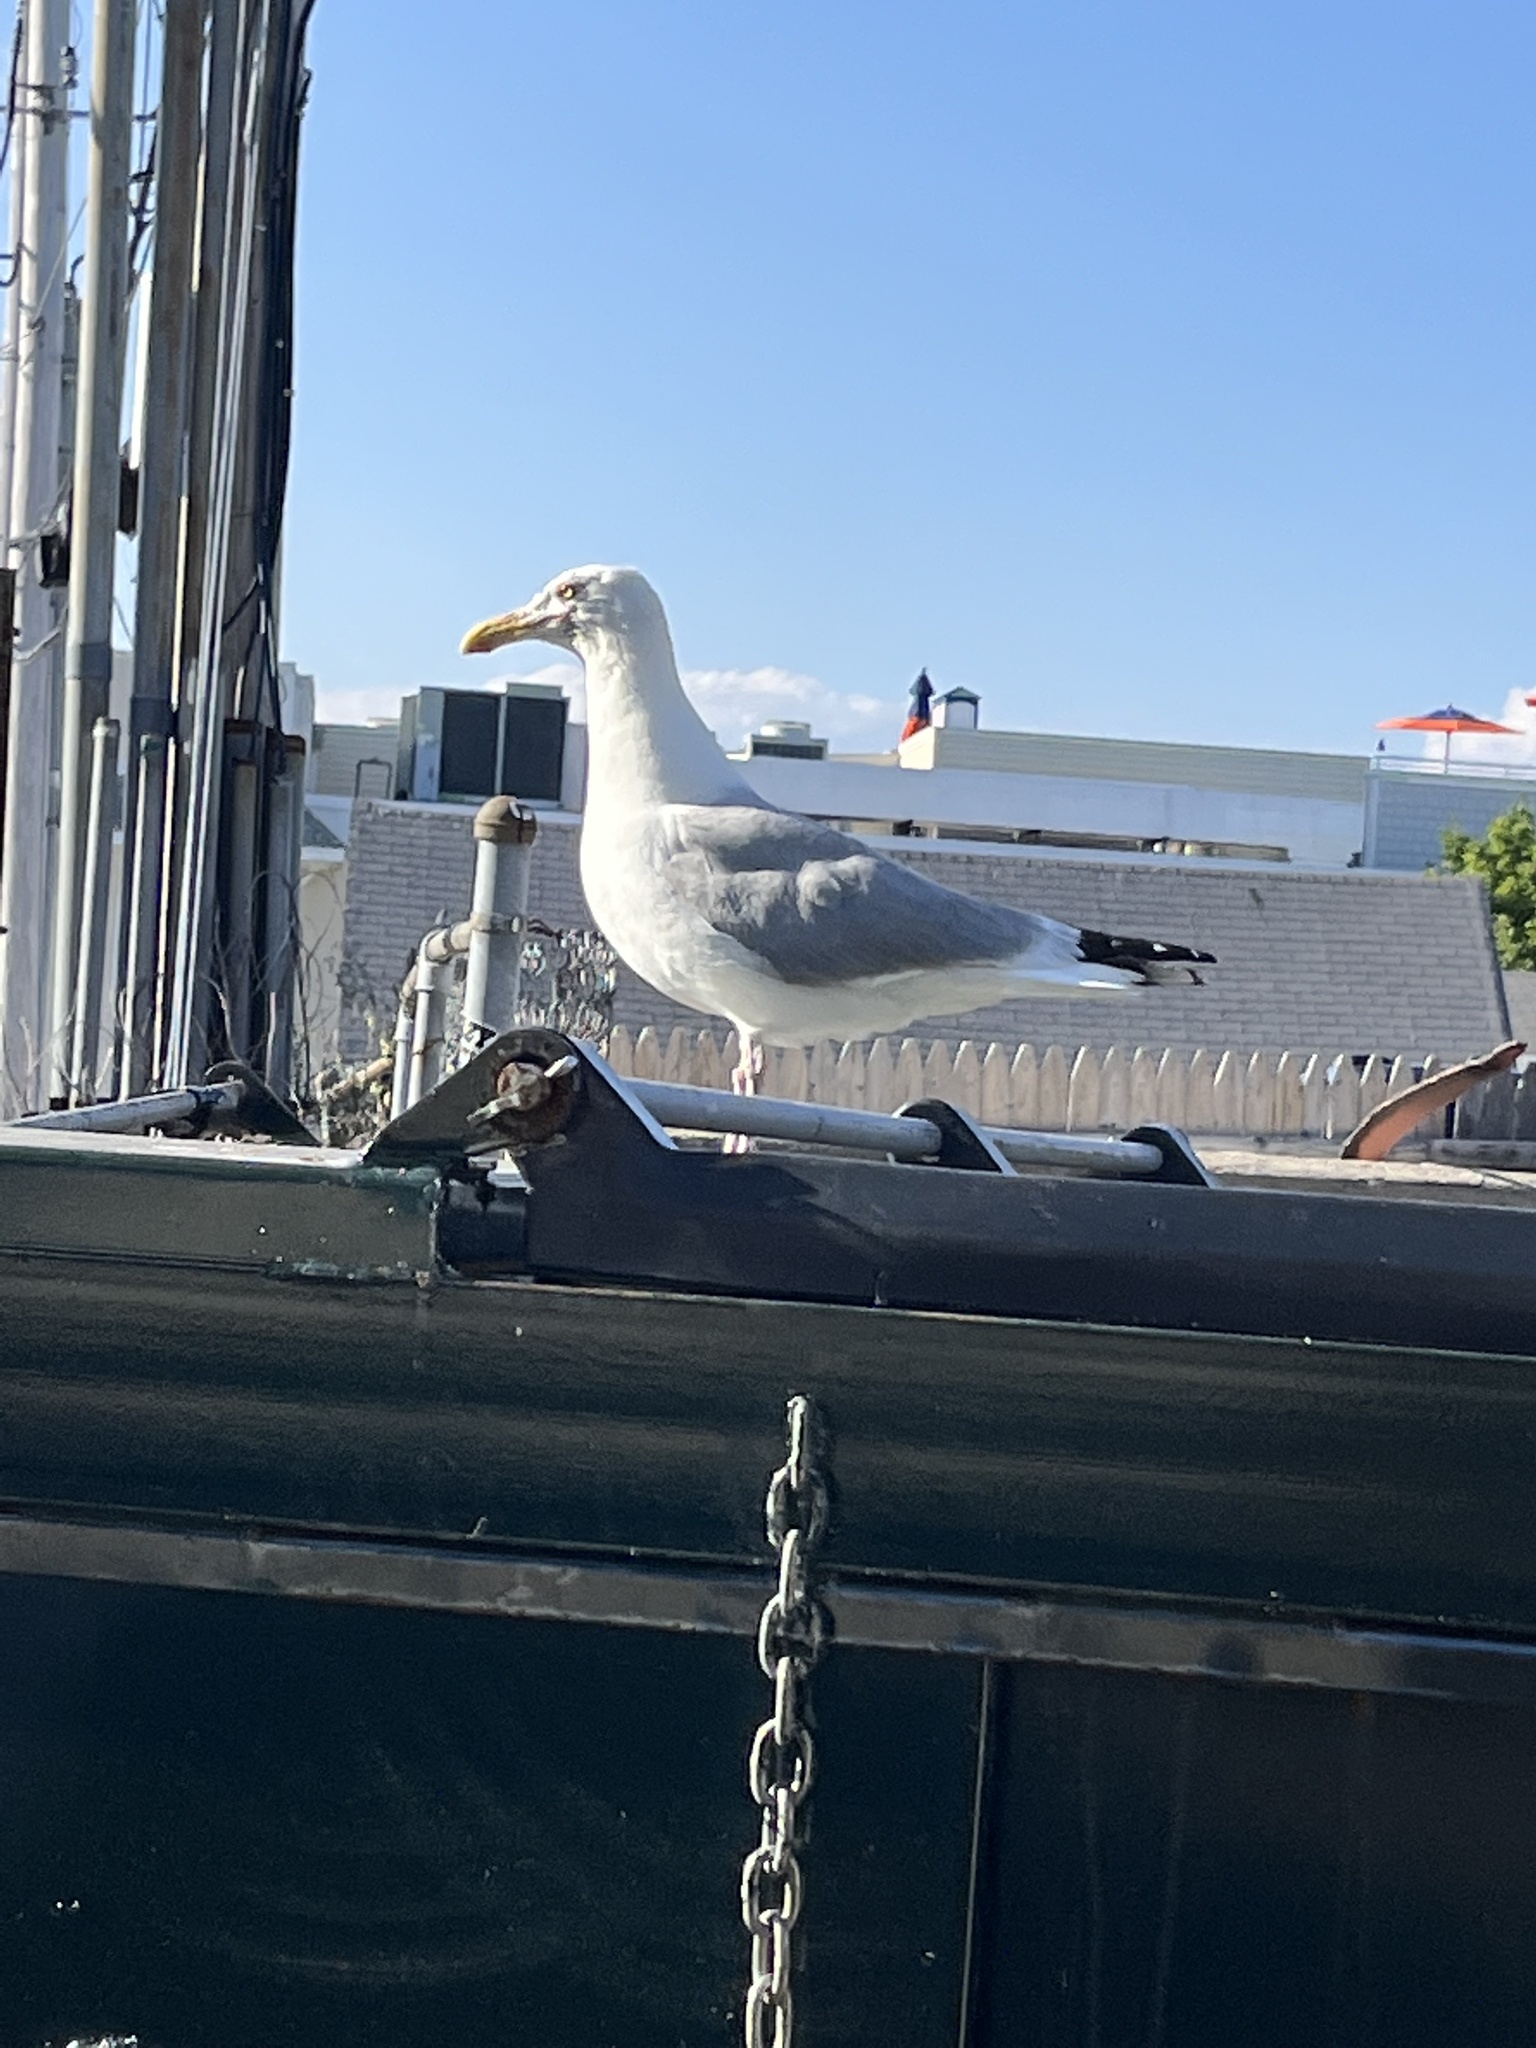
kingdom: Animalia
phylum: Chordata
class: Aves
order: Charadriiformes
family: Laridae
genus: Larus
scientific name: Larus argentatus
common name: Herring gull
